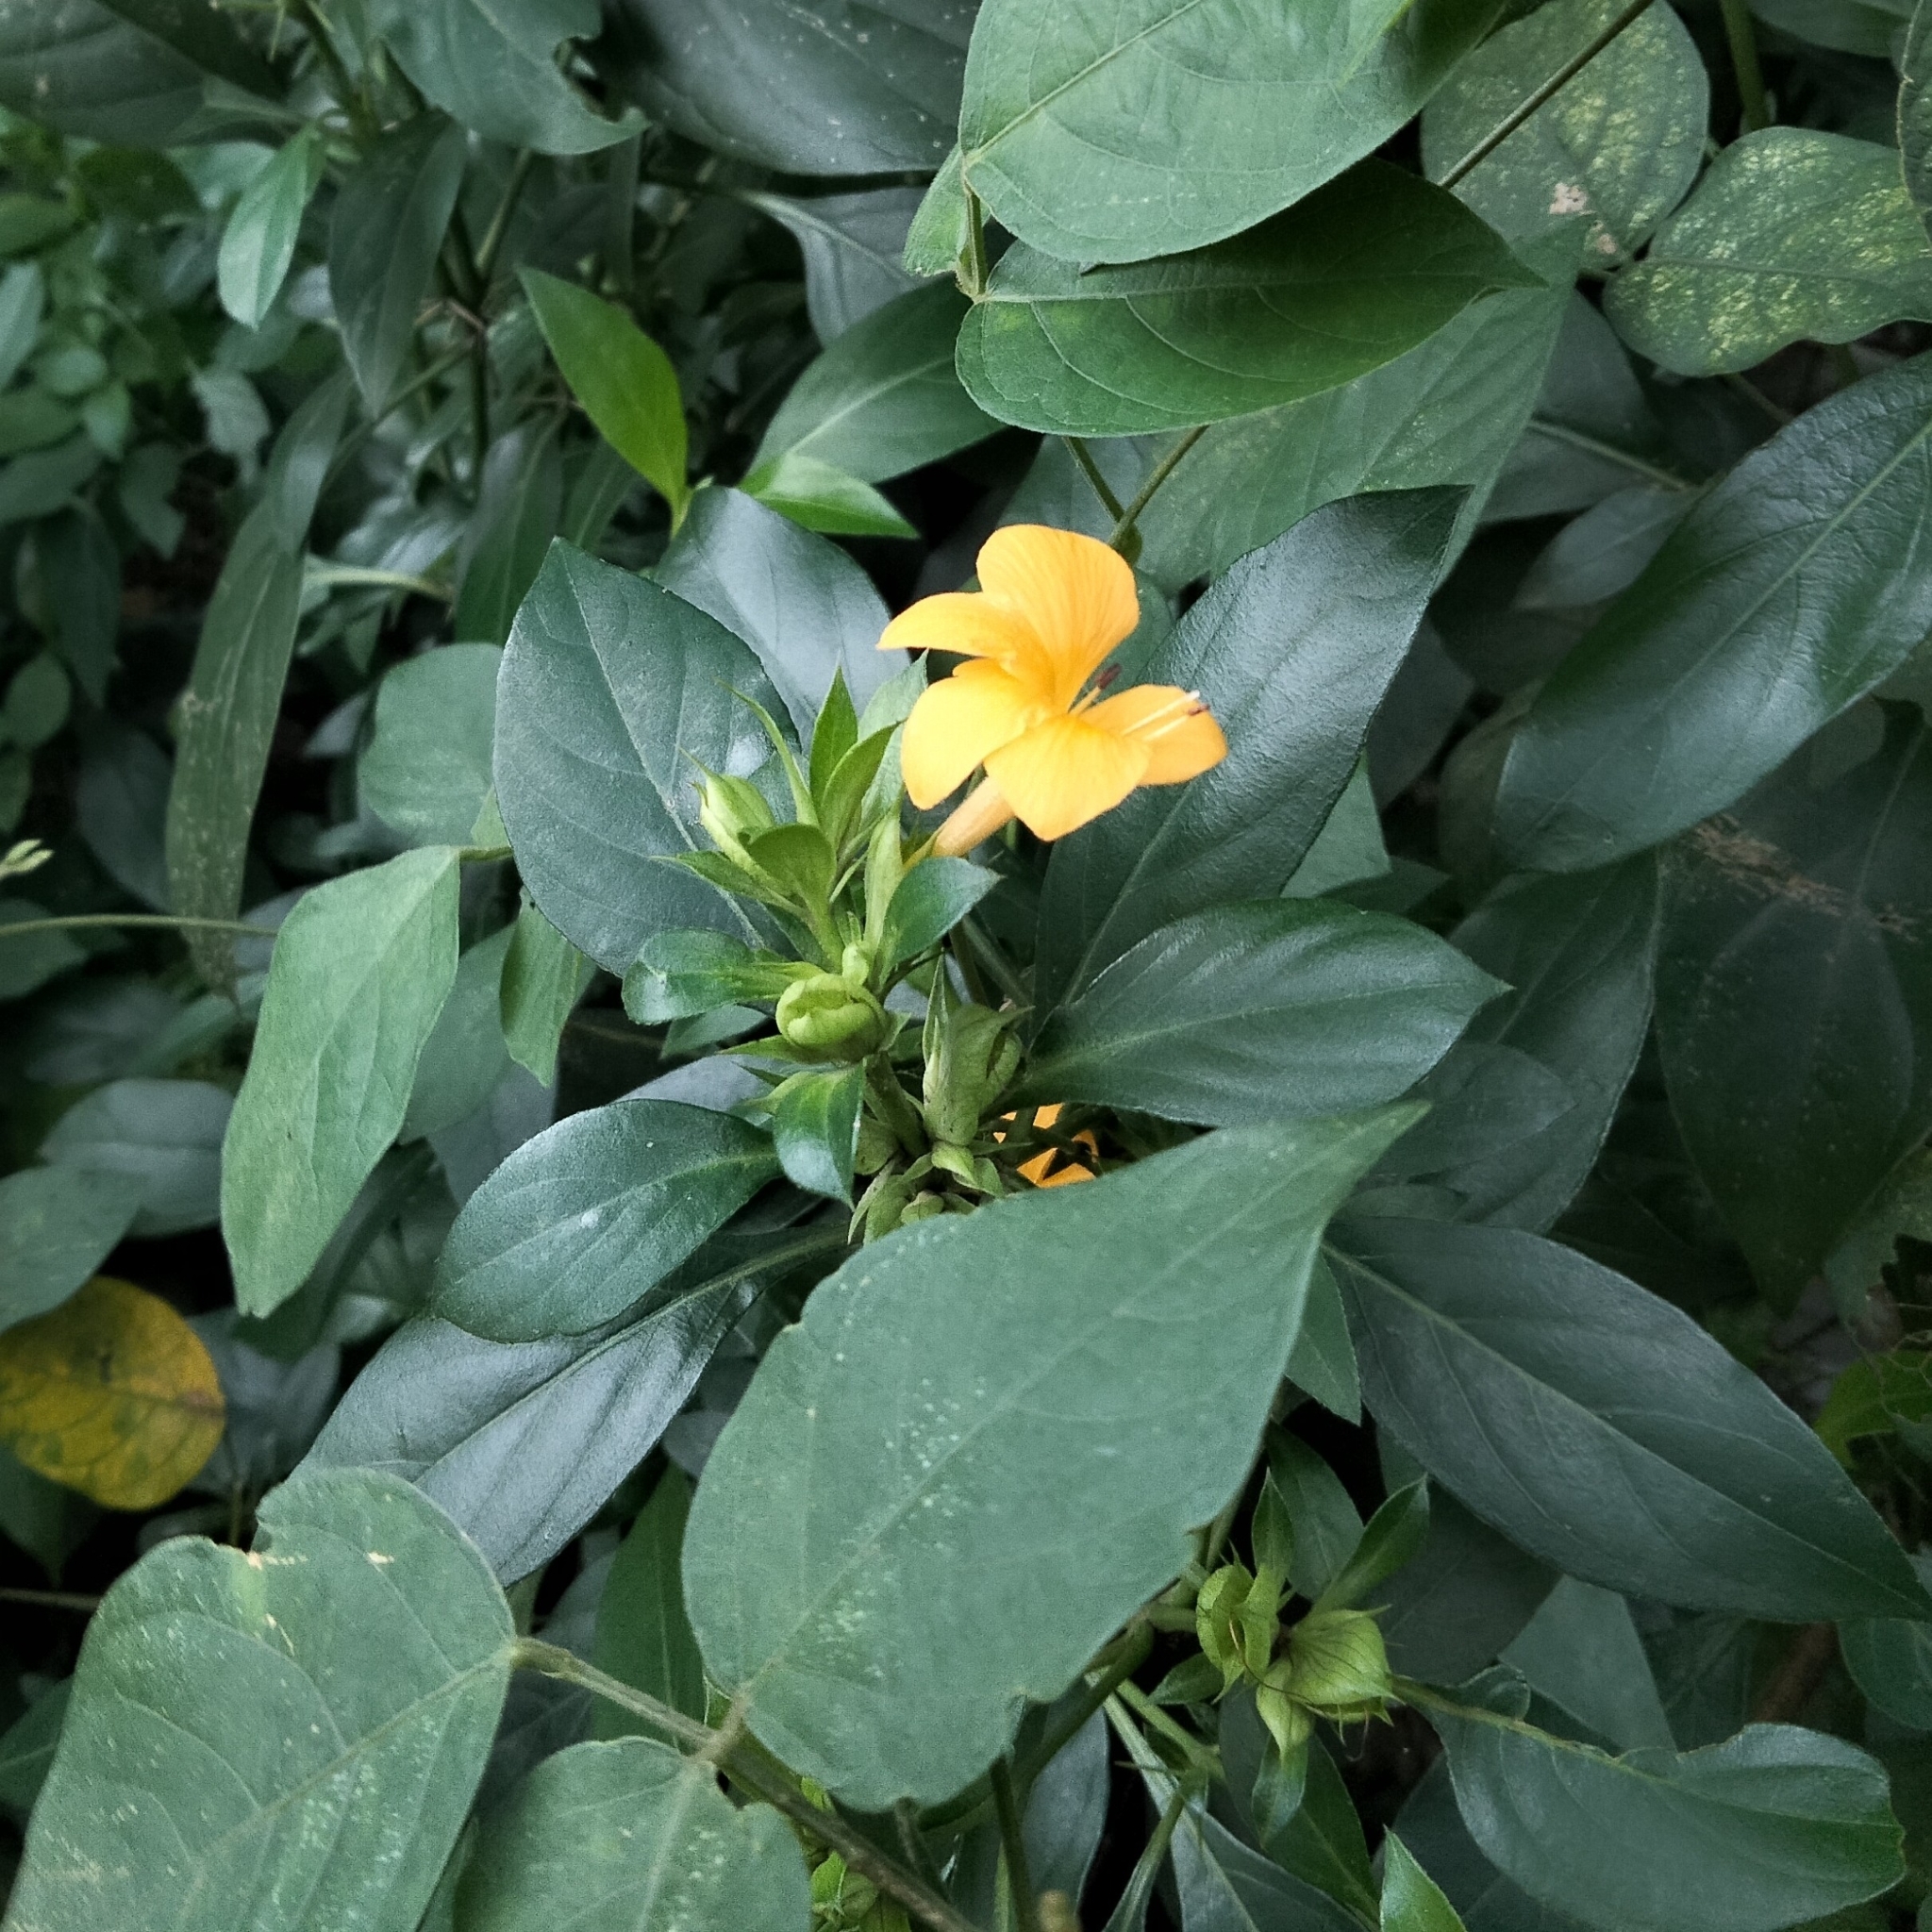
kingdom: Plantae
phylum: Tracheophyta
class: Magnoliopsida
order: Lamiales
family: Acanthaceae
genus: Barleria
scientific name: Barleria prionitis
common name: Barleria
